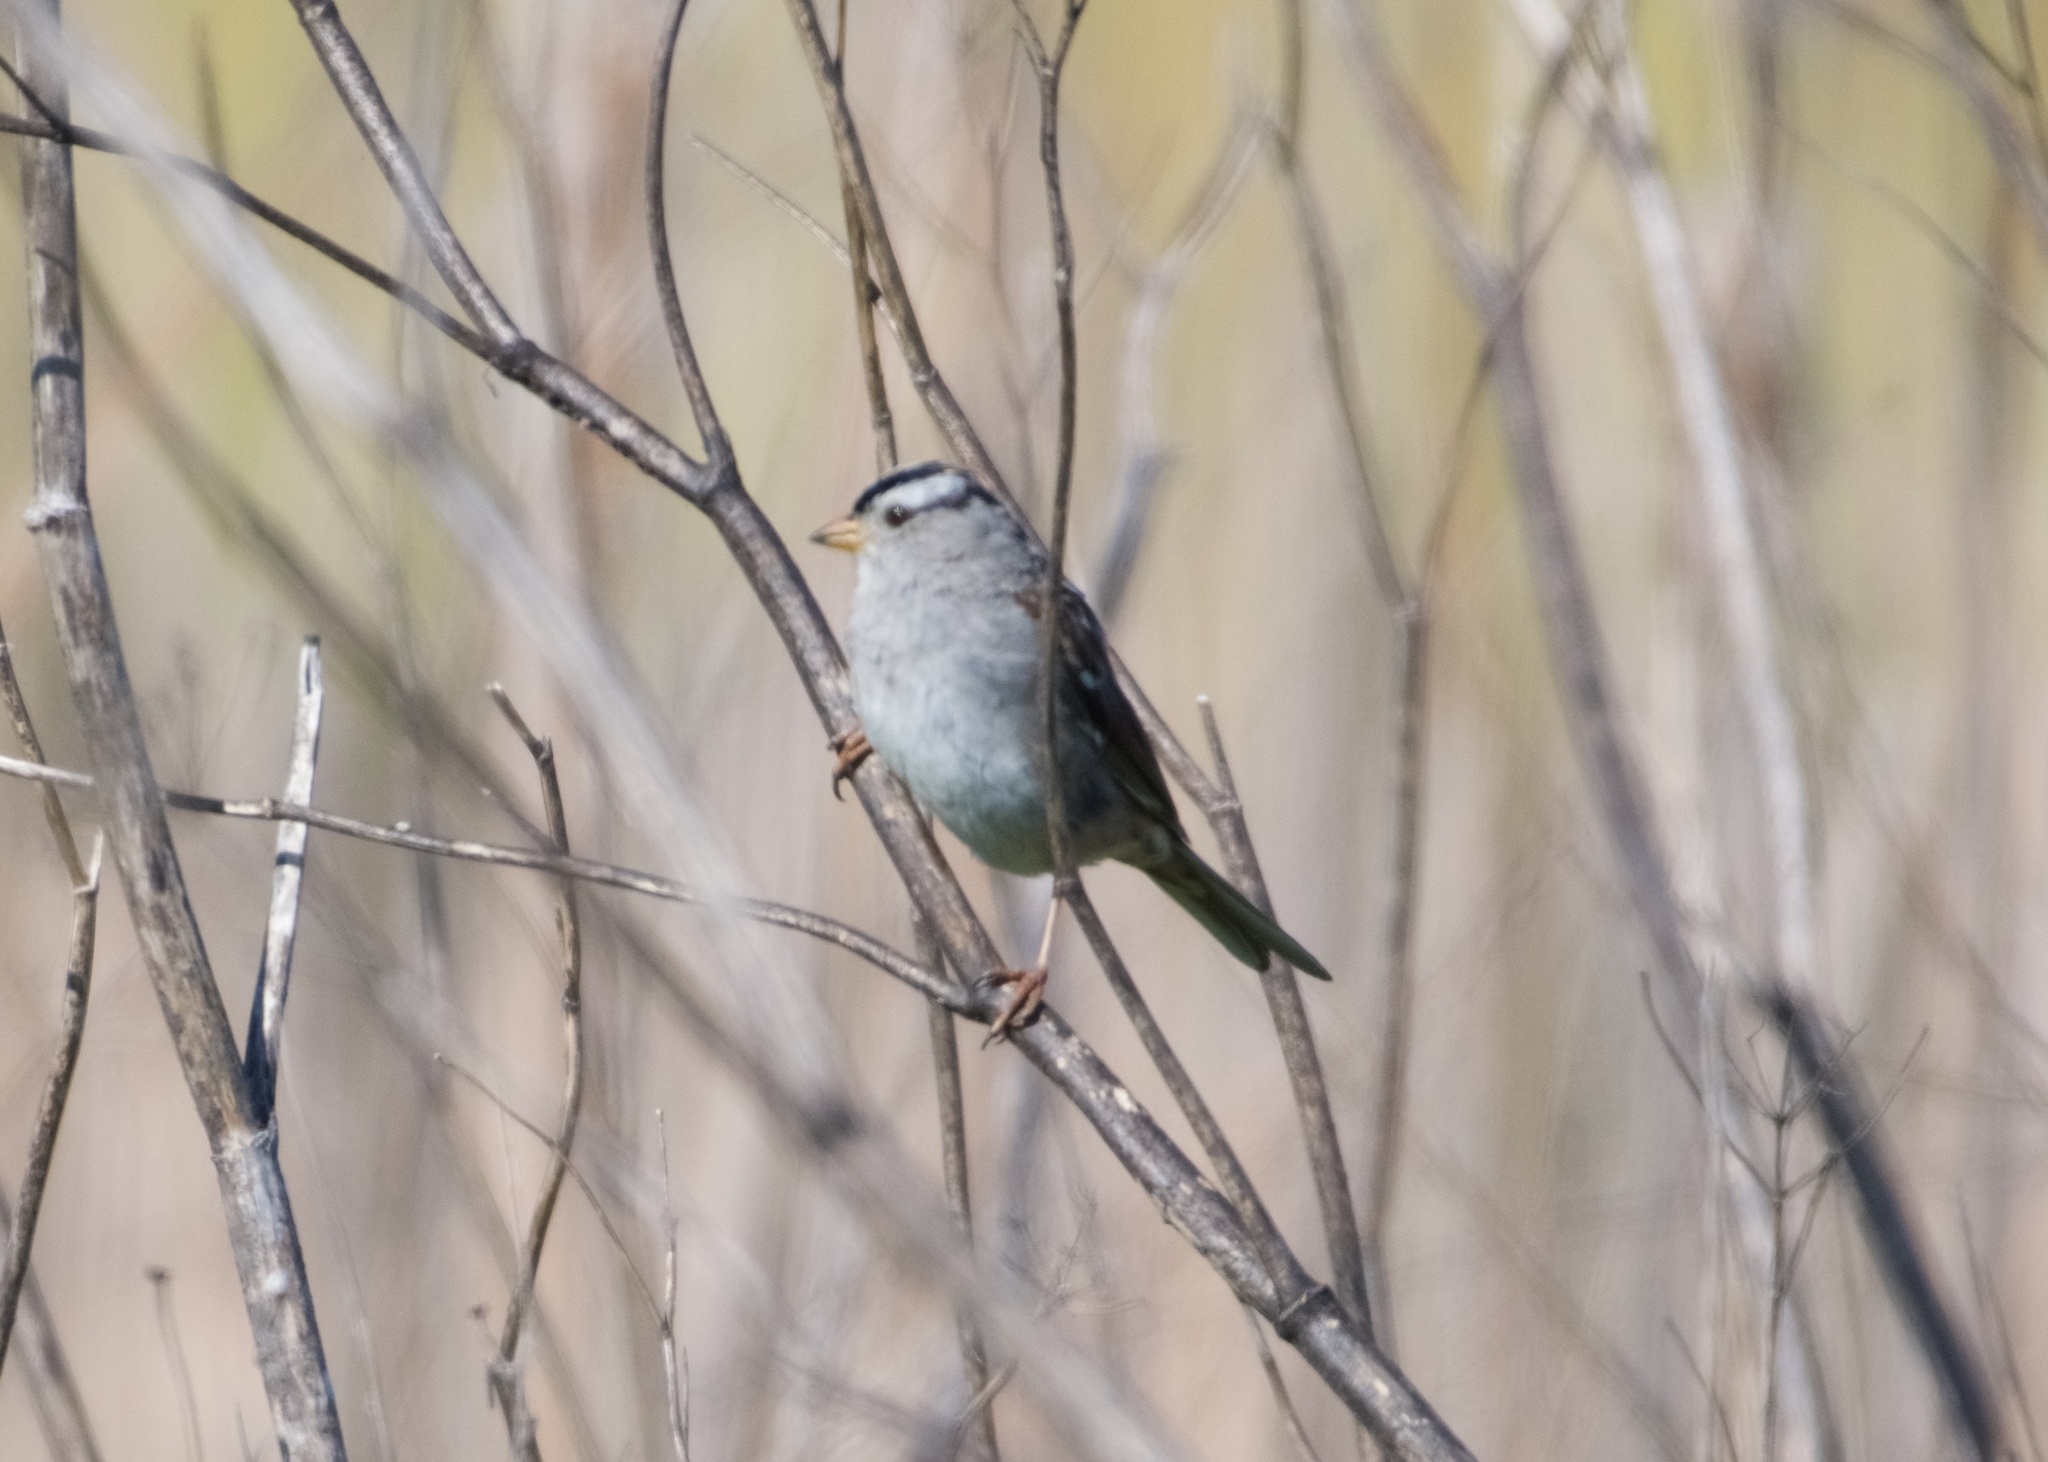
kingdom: Animalia
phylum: Chordata
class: Aves
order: Passeriformes
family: Passerellidae
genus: Zonotrichia
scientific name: Zonotrichia leucophrys
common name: White-crowned sparrow
